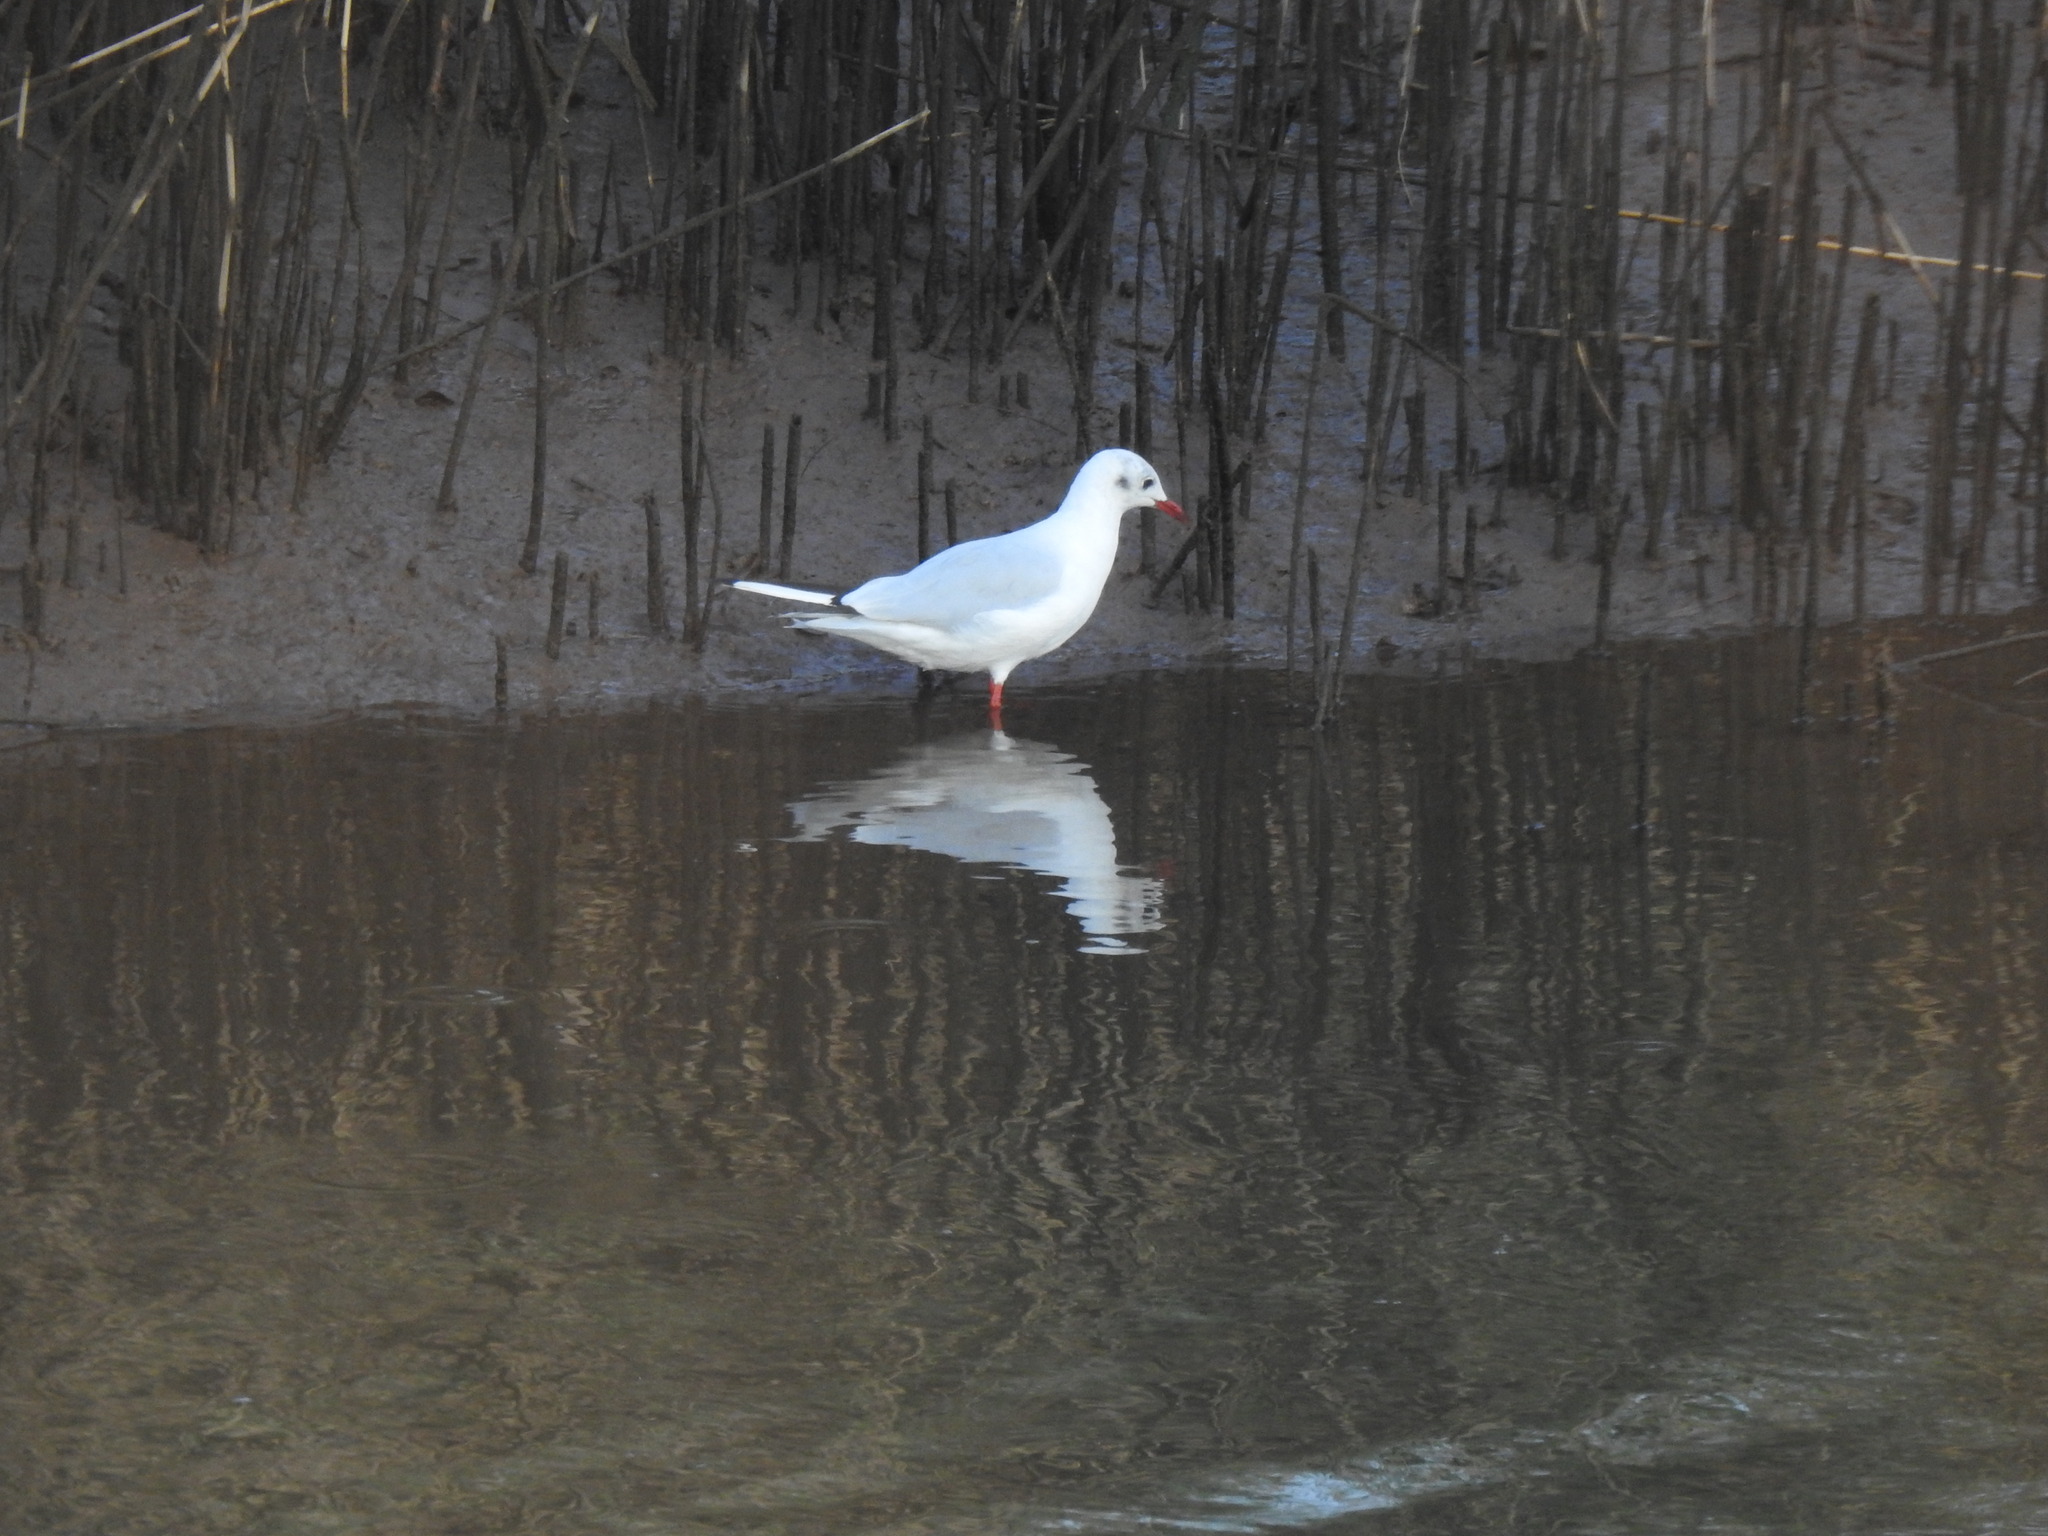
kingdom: Animalia
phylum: Chordata
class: Aves
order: Charadriiformes
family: Laridae
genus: Chroicocephalus
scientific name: Chroicocephalus ridibundus
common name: Black-headed gull
